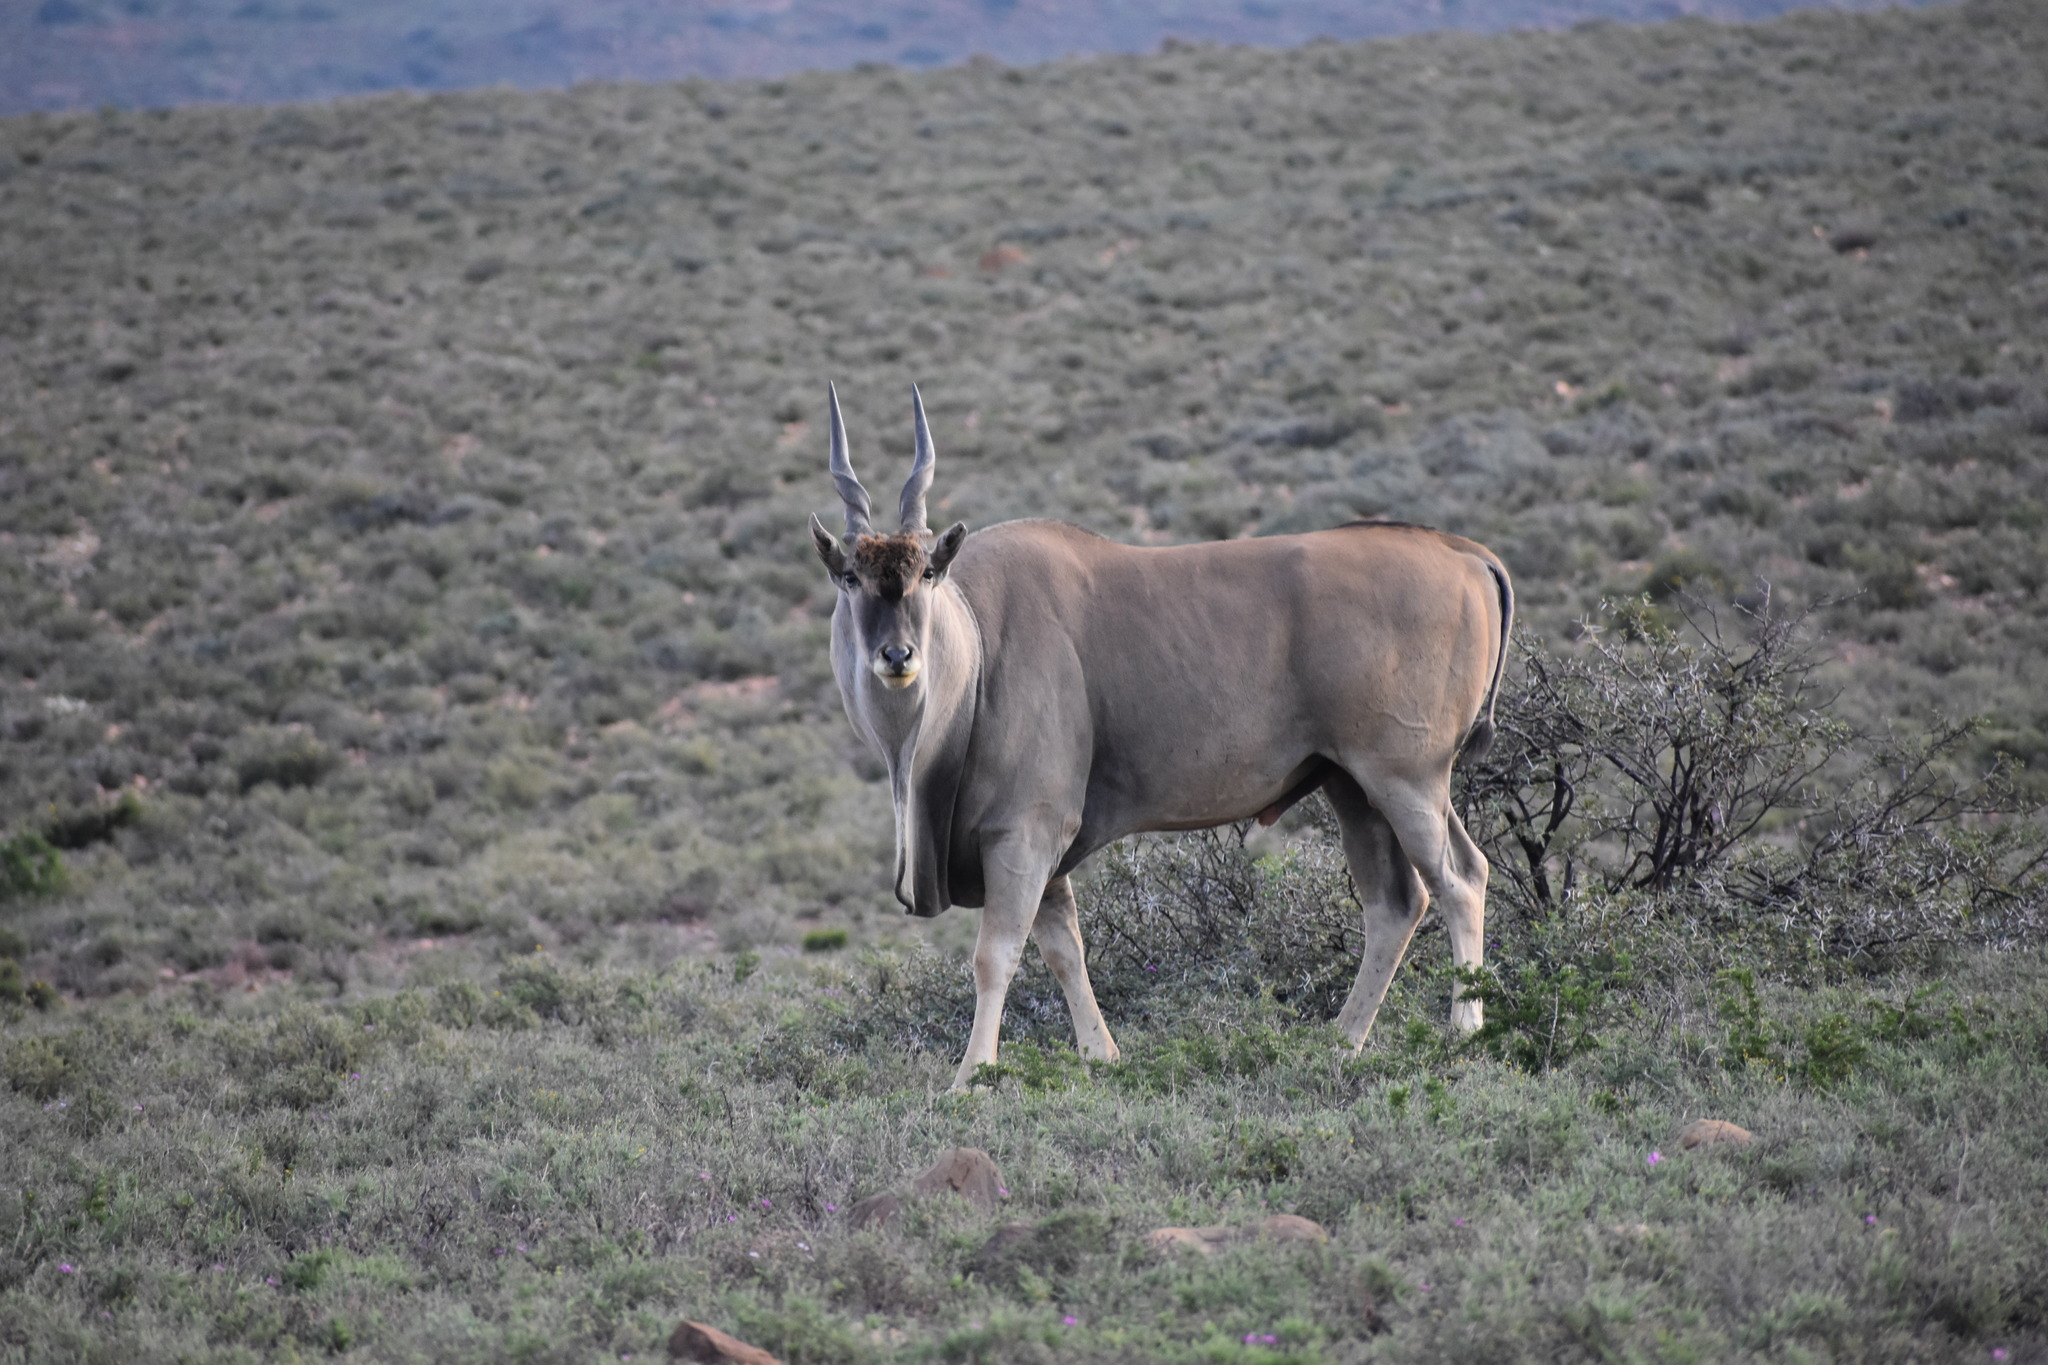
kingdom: Animalia
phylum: Chordata
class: Mammalia
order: Artiodactyla
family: Bovidae
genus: Taurotragus
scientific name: Taurotragus oryx
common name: Common eland
